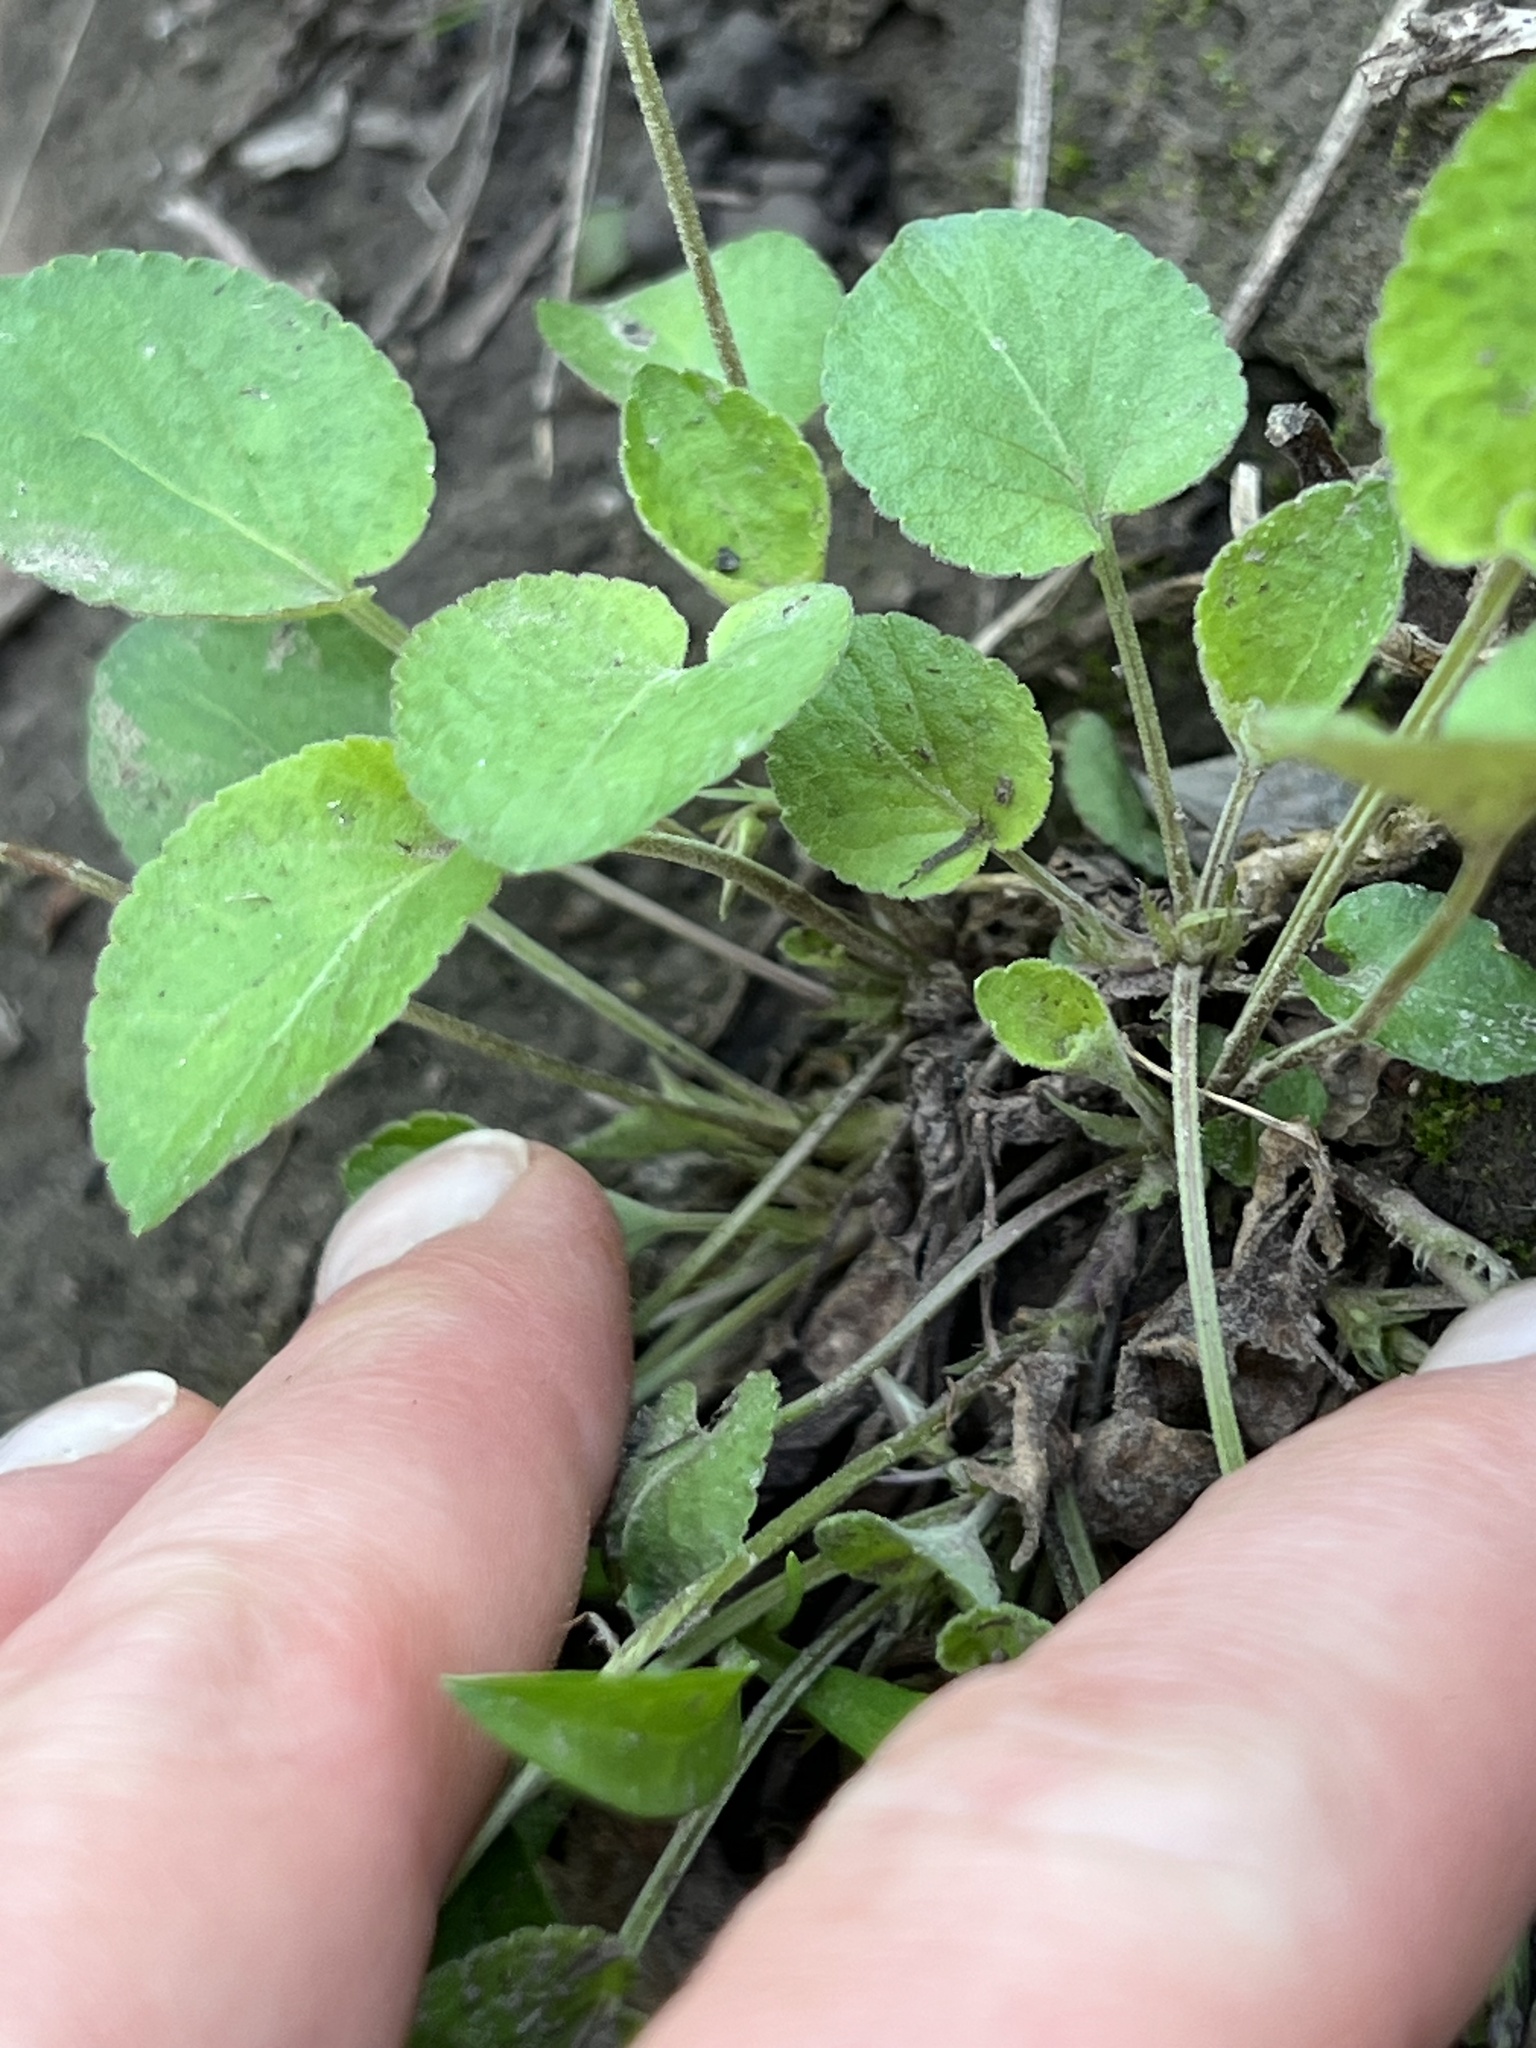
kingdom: Plantae
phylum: Tracheophyta
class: Magnoliopsida
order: Malpighiales
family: Violaceae
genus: Viola
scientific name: Viola adunca
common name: Sand violet
